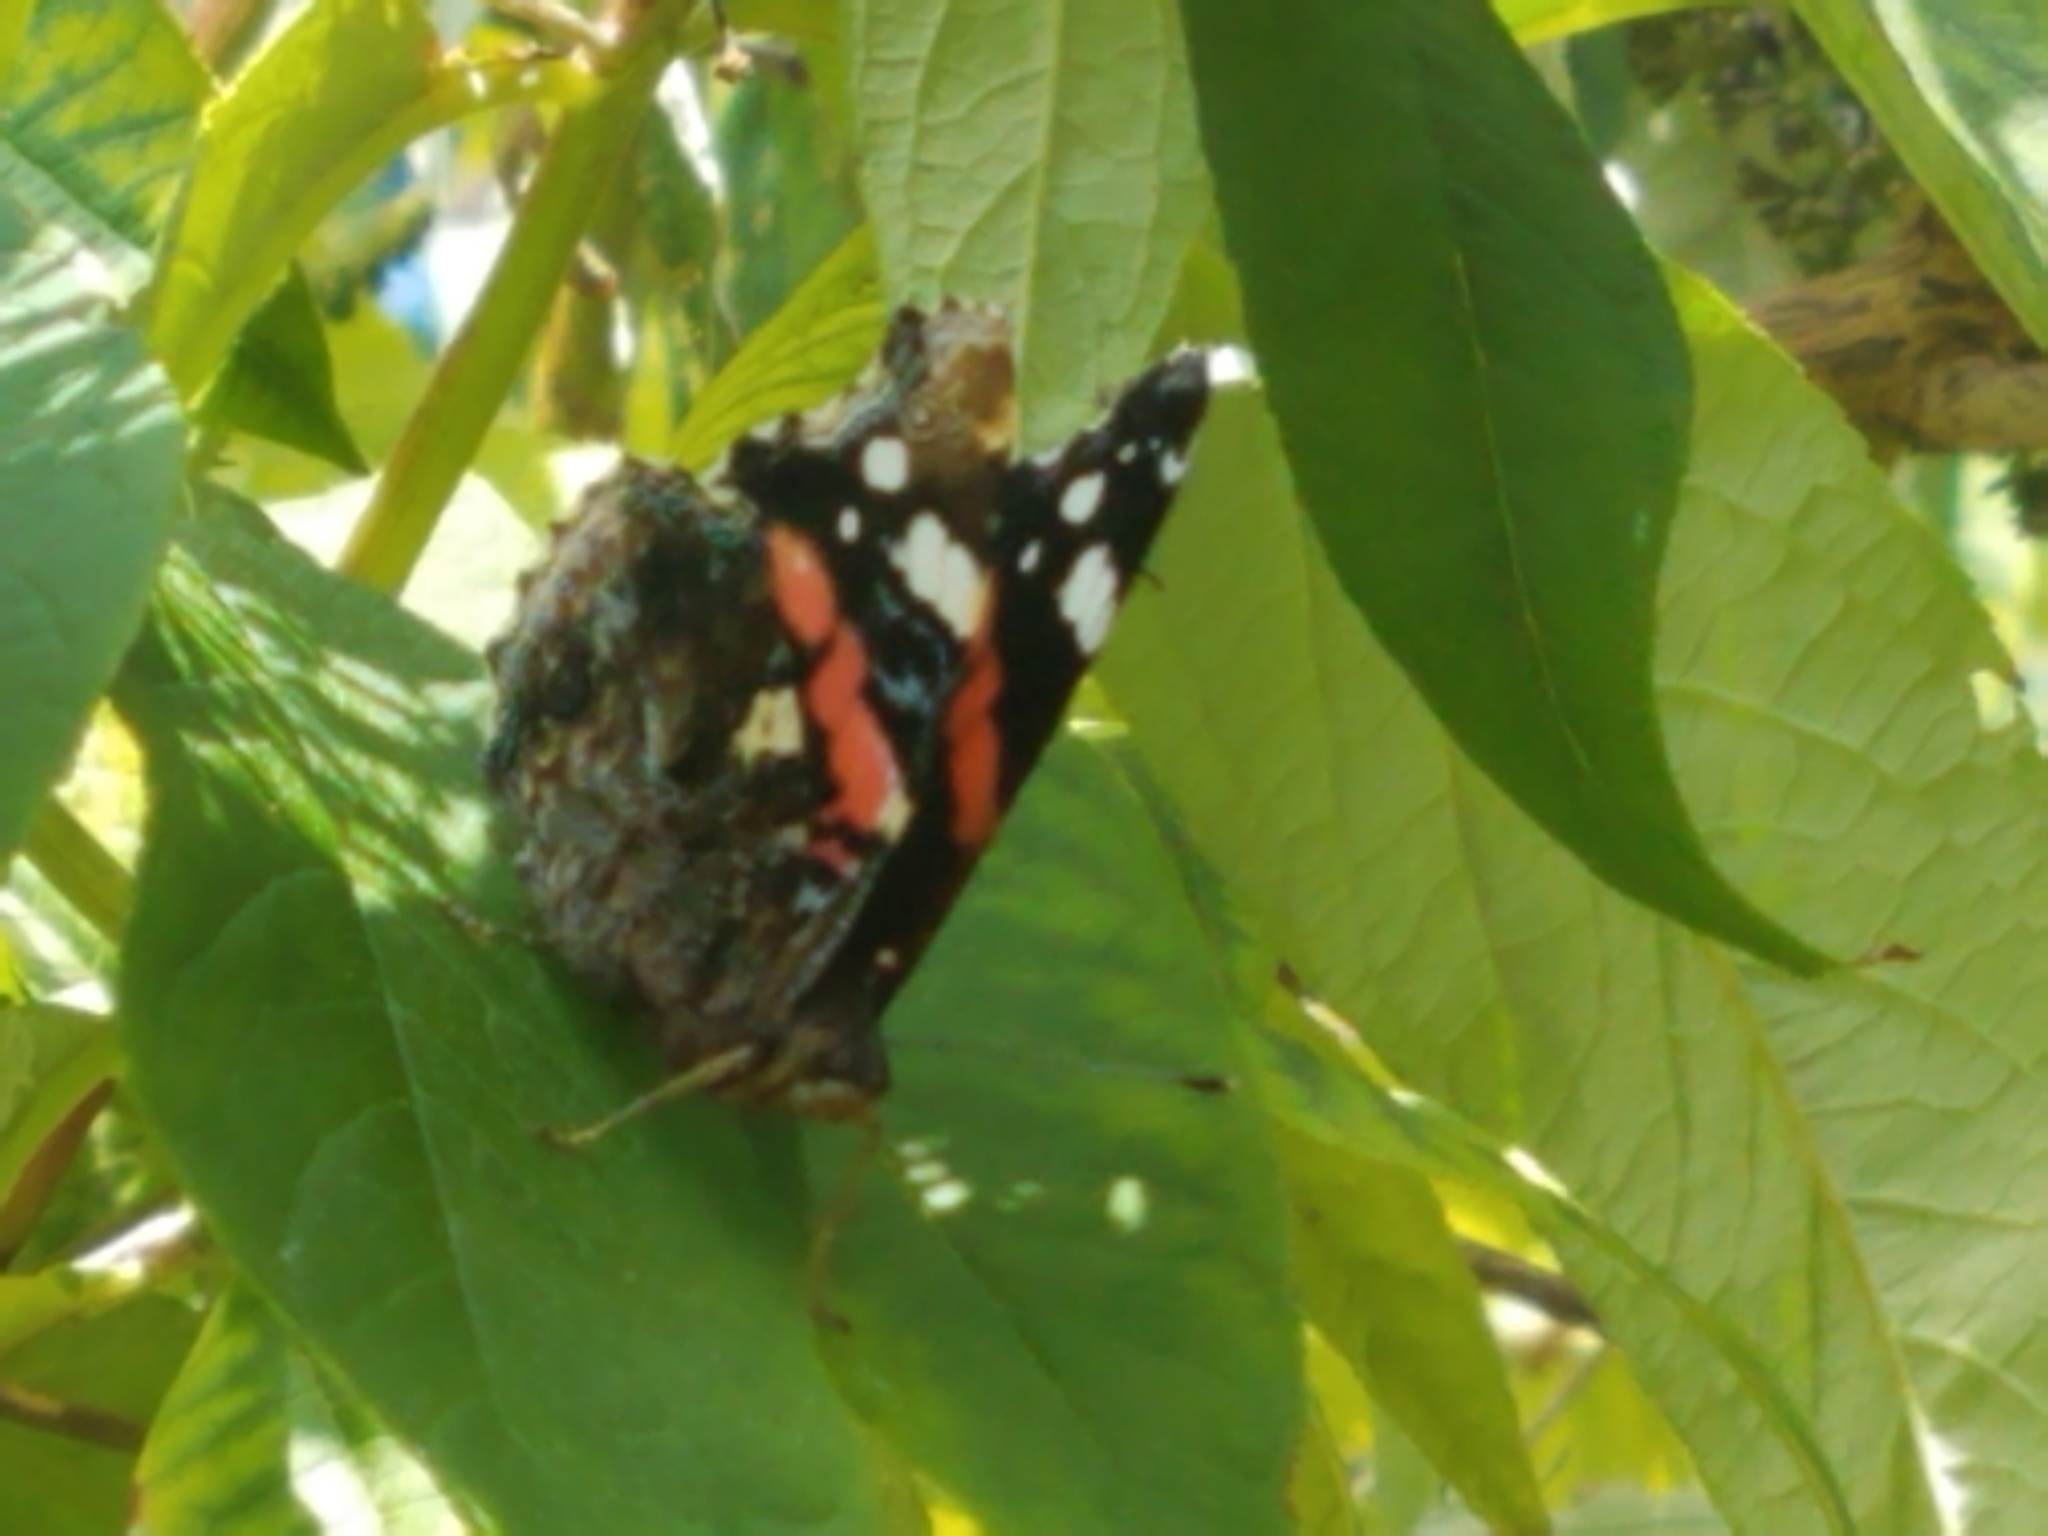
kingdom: Animalia
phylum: Arthropoda
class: Insecta
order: Lepidoptera
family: Nymphalidae
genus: Vanessa
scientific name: Vanessa atalanta
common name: Red admiral
